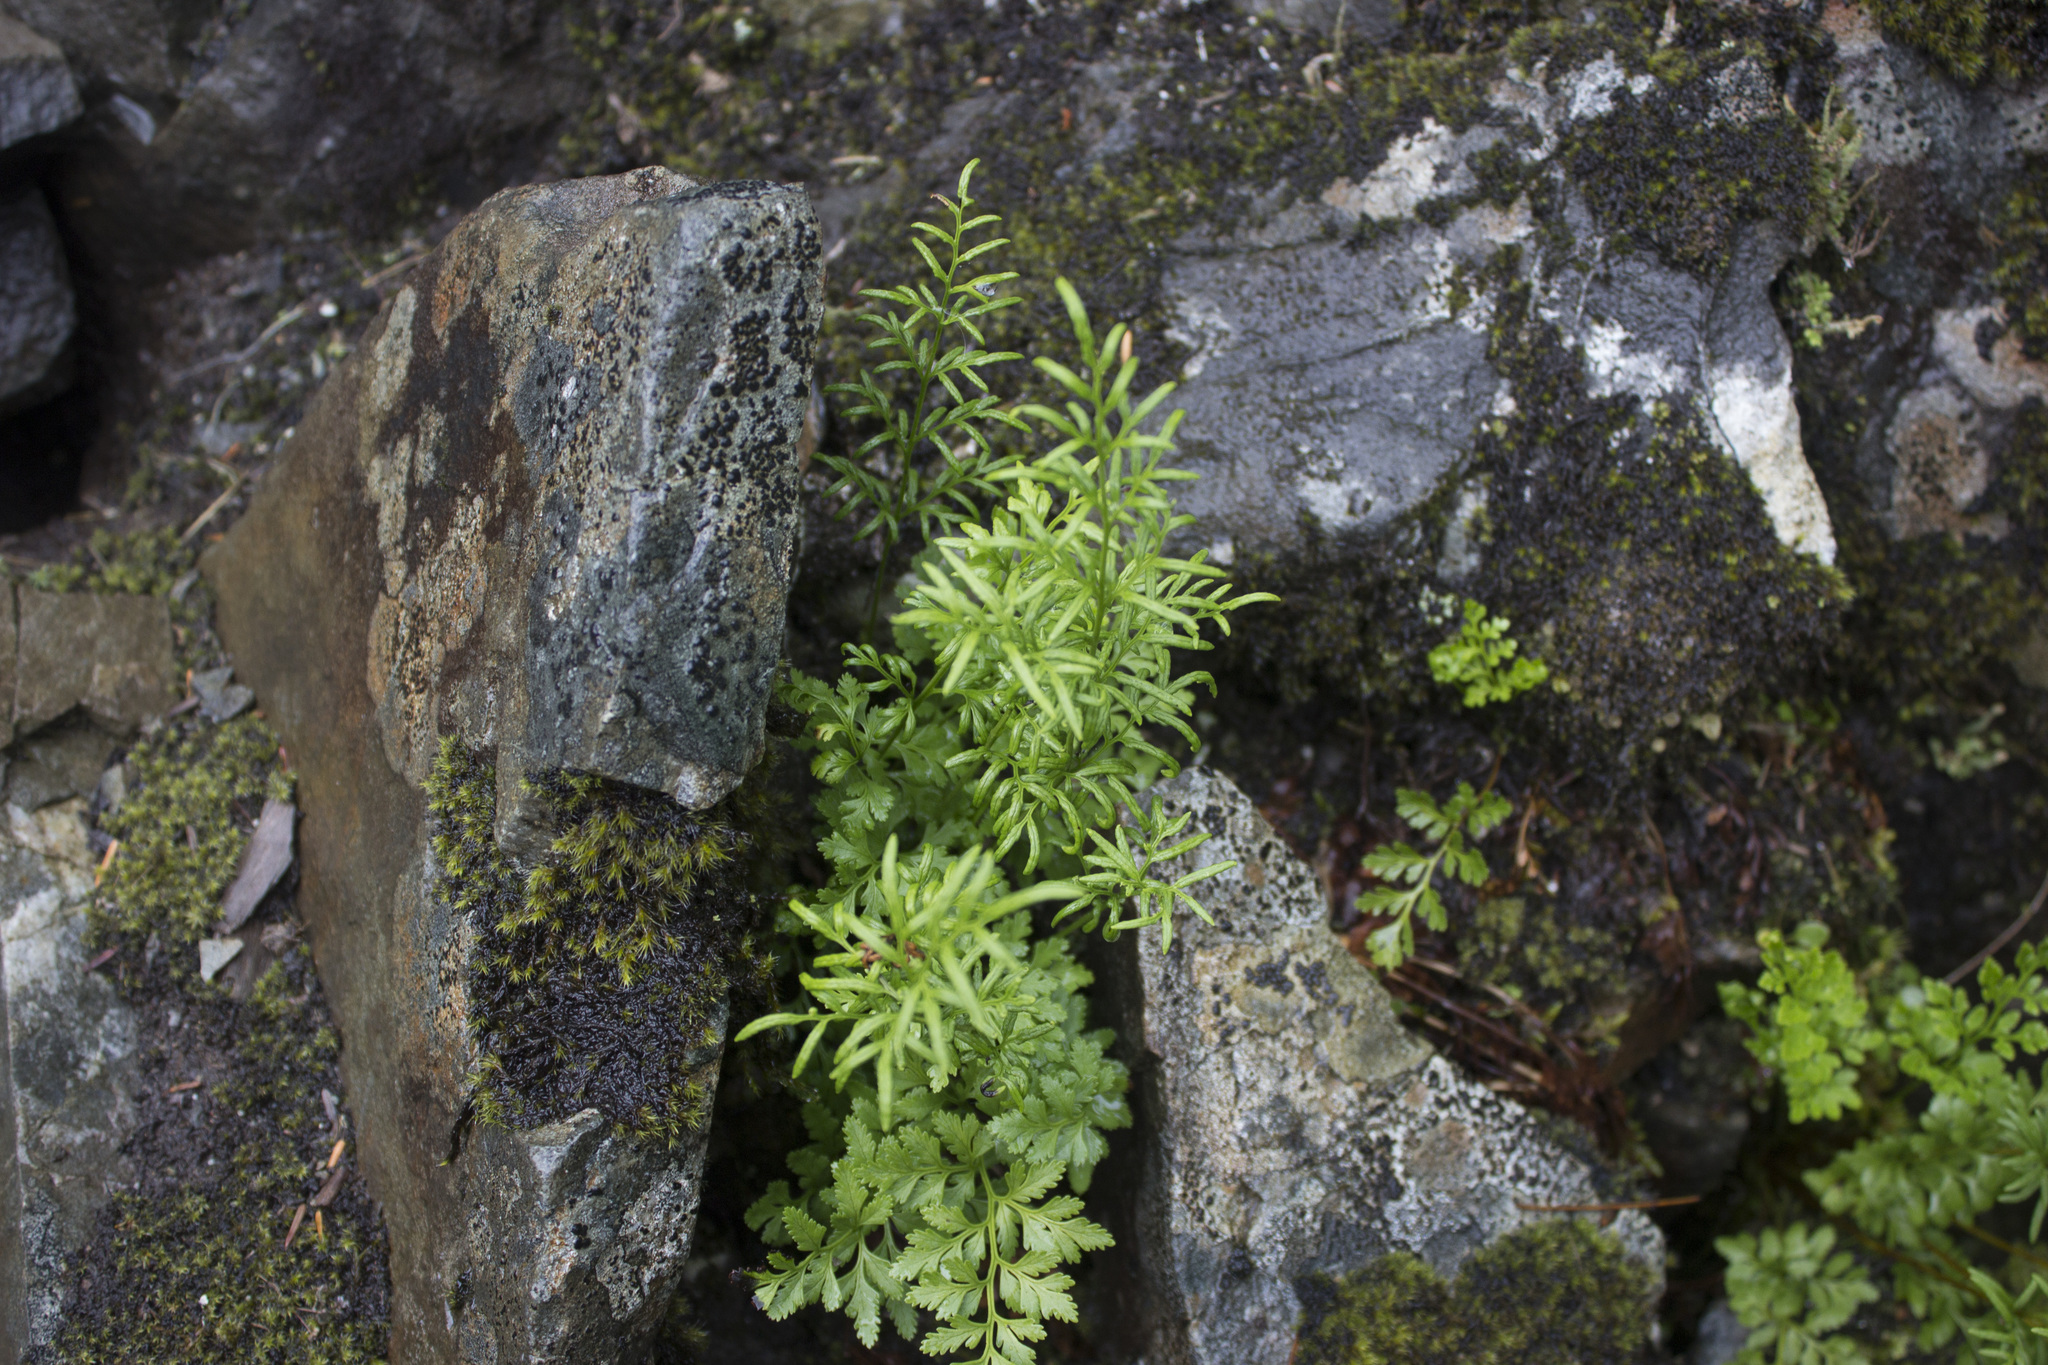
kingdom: Plantae
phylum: Tracheophyta
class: Polypodiopsida
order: Polypodiales
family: Pteridaceae
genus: Cryptogramma
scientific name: Cryptogramma acrostichoides
